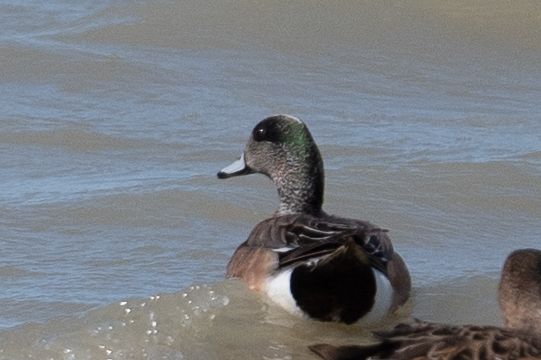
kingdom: Animalia
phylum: Chordata
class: Aves
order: Anseriformes
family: Anatidae
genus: Mareca
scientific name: Mareca americana
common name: American wigeon
